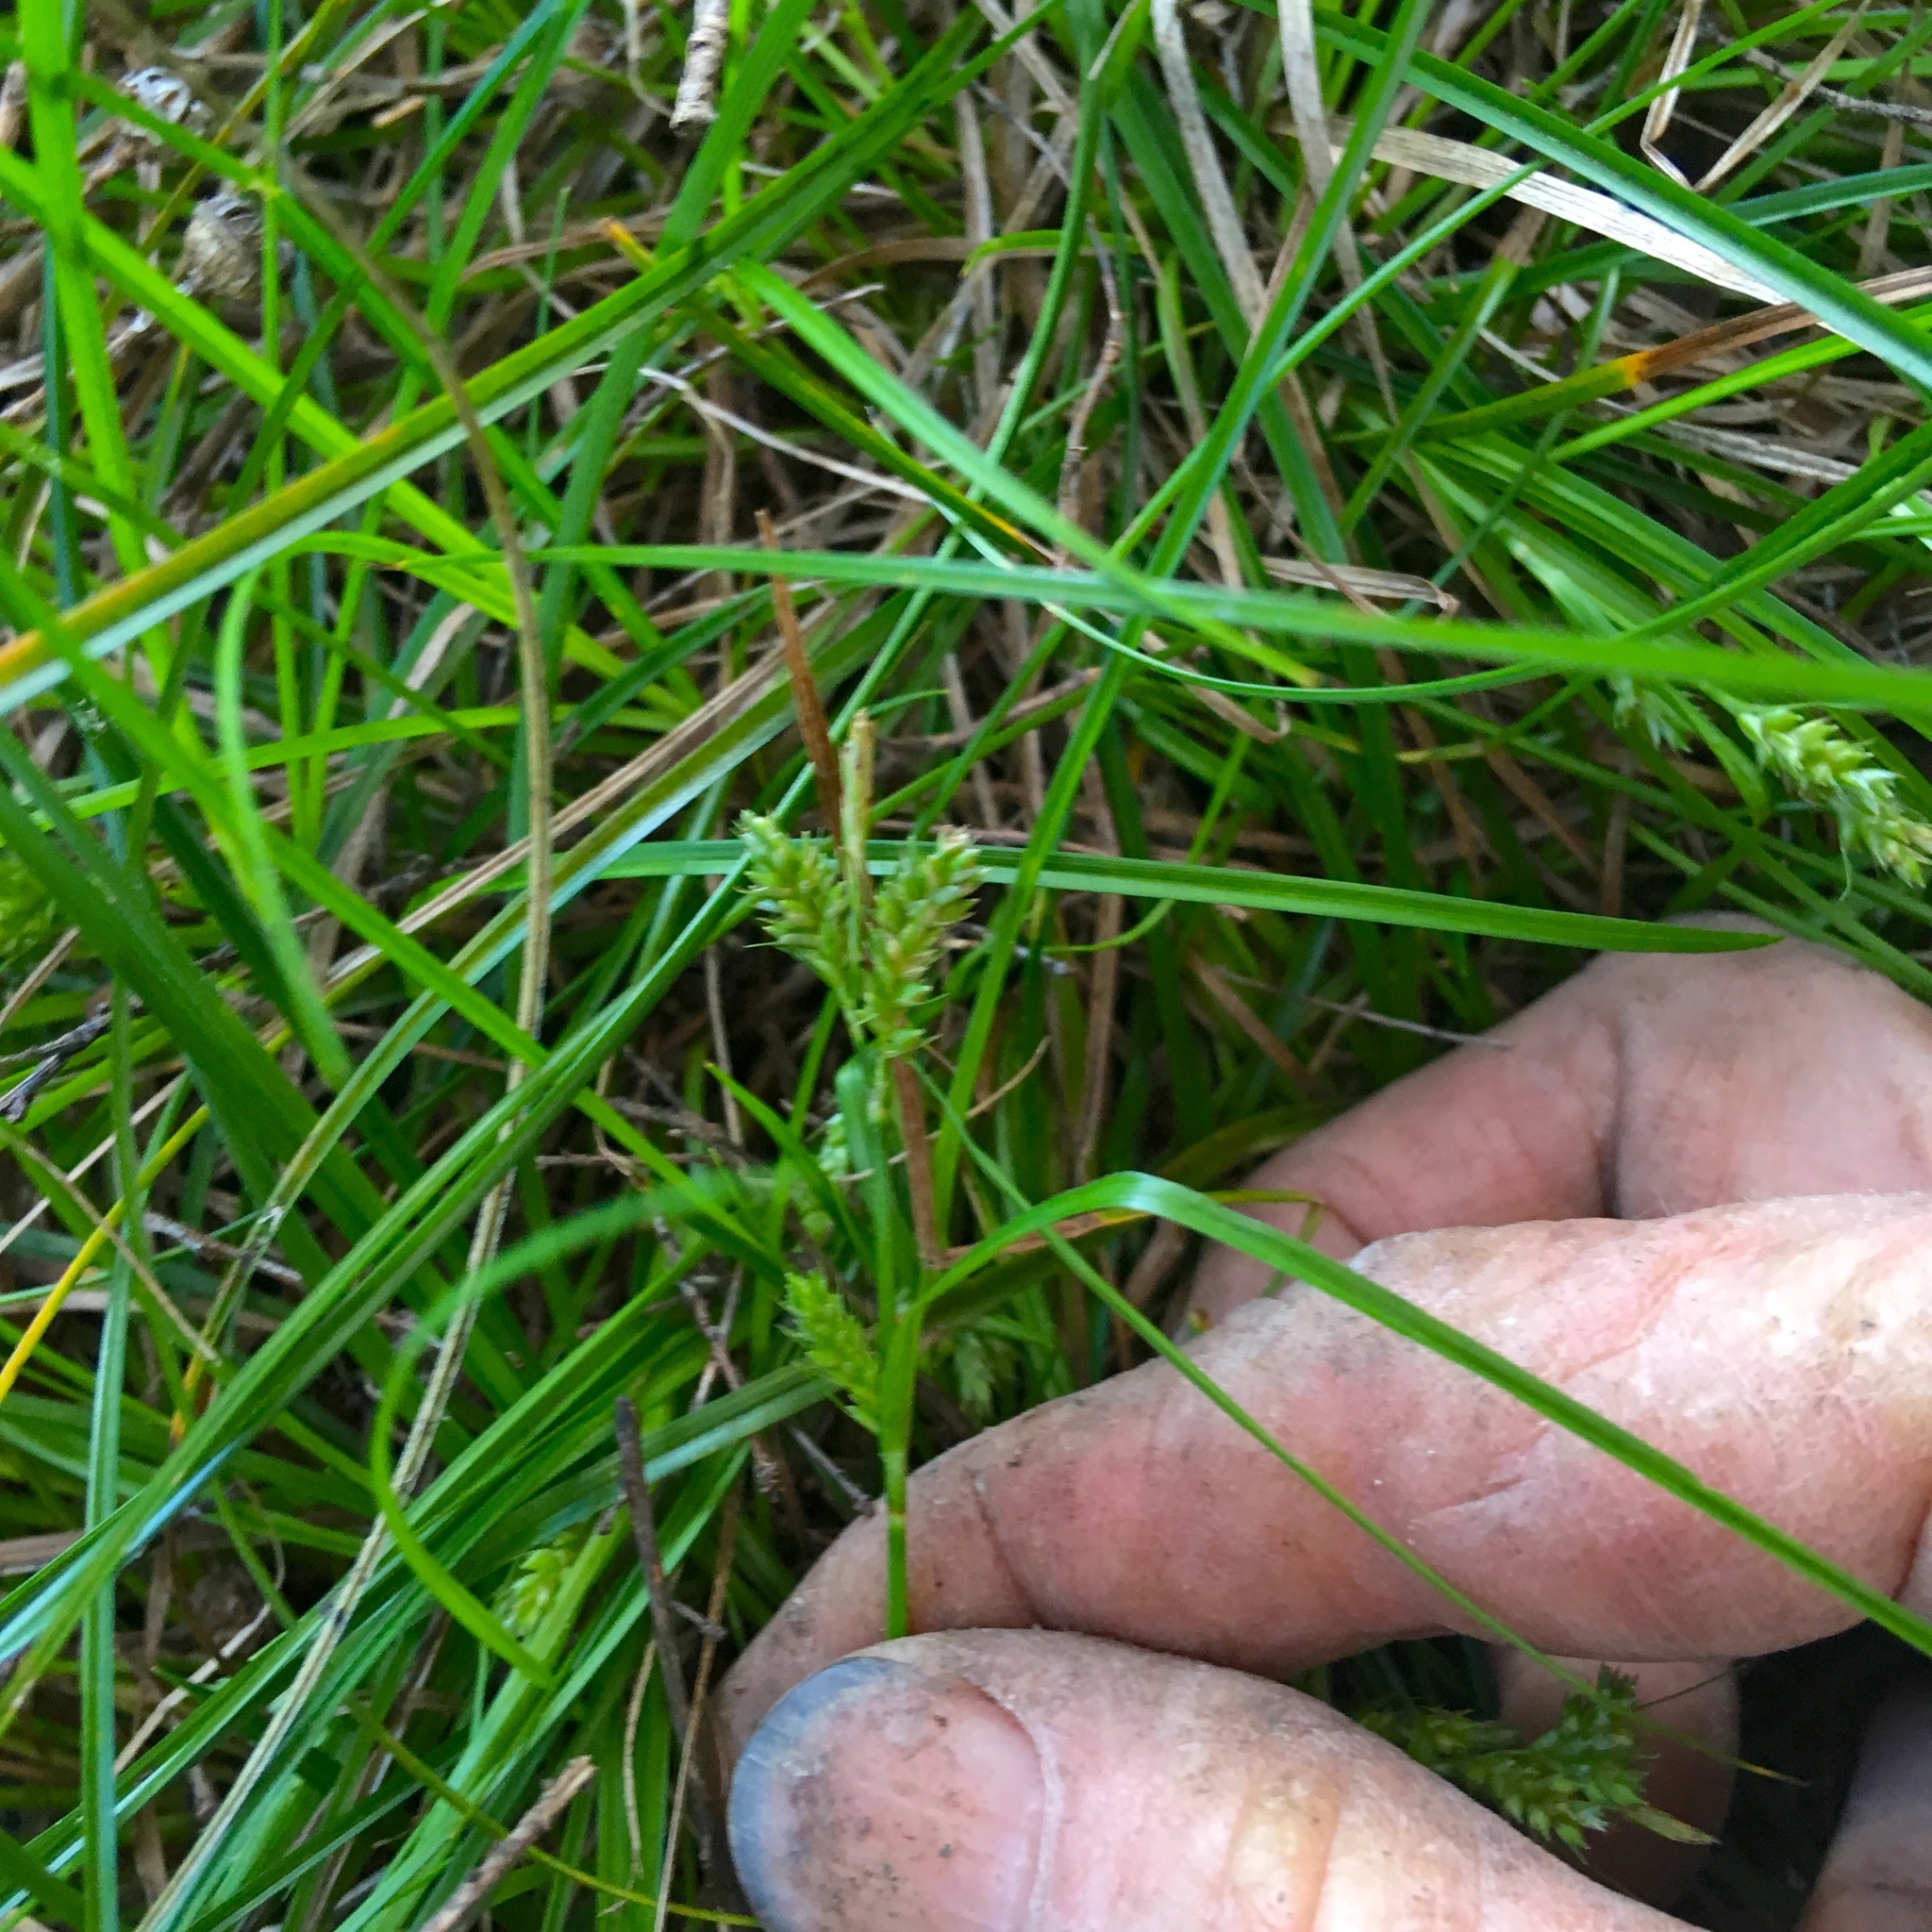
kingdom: Plantae
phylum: Tracheophyta
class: Liliopsida
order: Poales
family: Cyperaceae
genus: Carex
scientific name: Carex inversa
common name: Knob sedge
